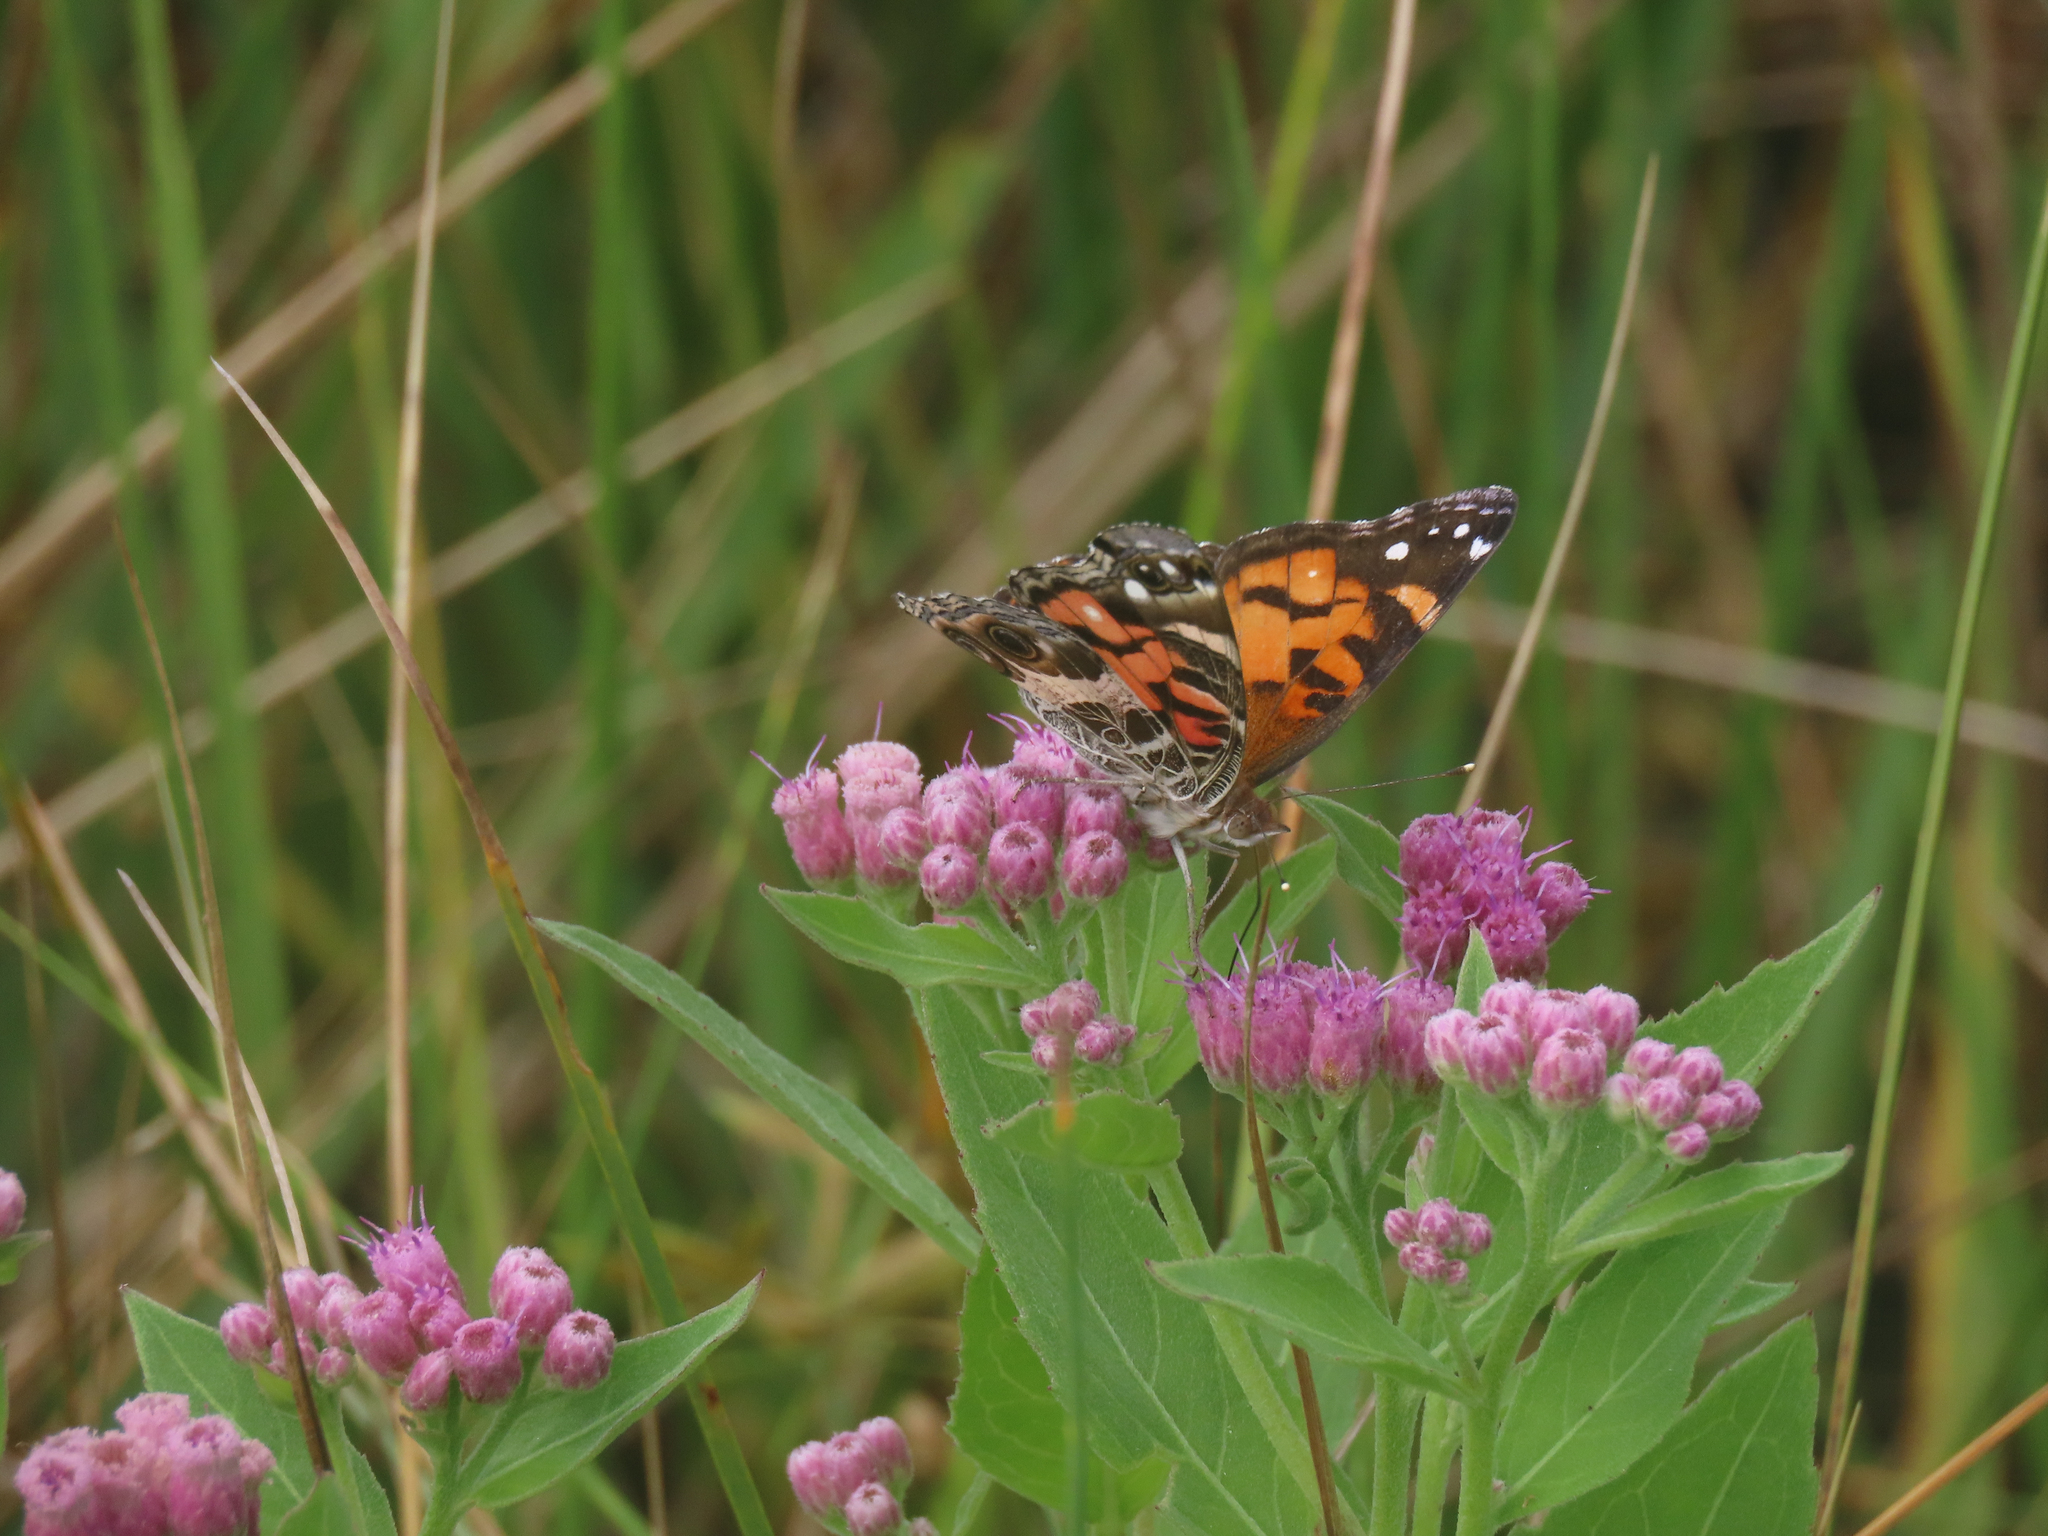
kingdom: Animalia
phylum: Arthropoda
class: Insecta
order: Lepidoptera
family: Nymphalidae
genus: Vanessa
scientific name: Vanessa virginiensis
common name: American lady
